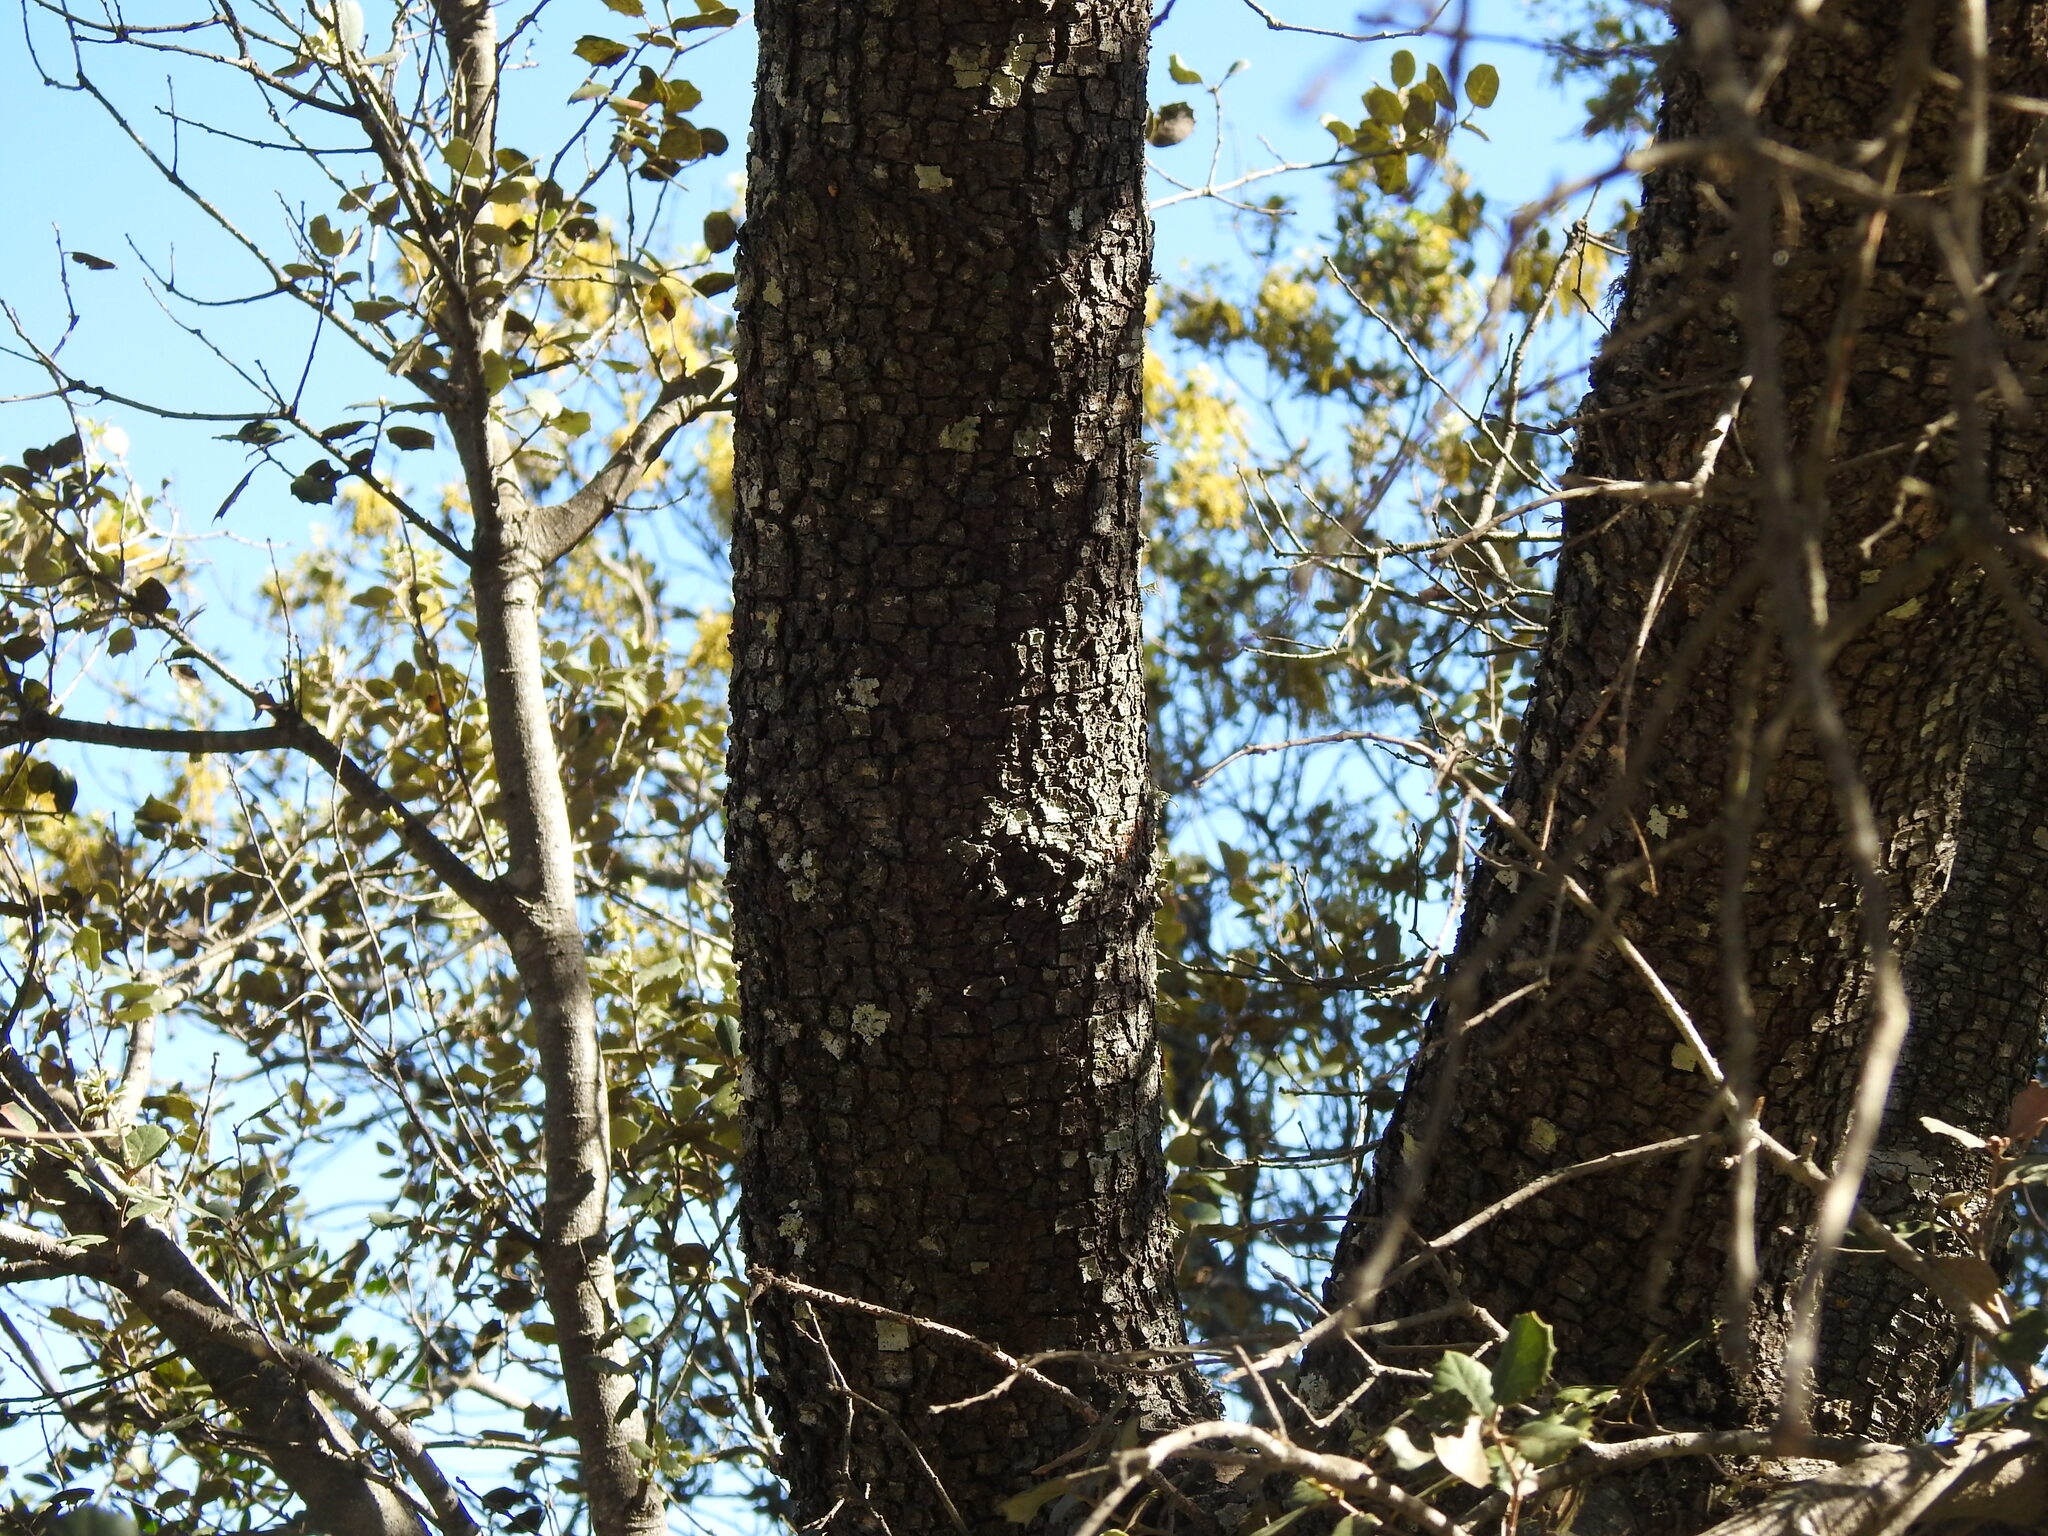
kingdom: Plantae
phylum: Tracheophyta
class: Magnoliopsida
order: Fagales
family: Fagaceae
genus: Quercus
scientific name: Quercus rotundifolia
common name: Holm oak
